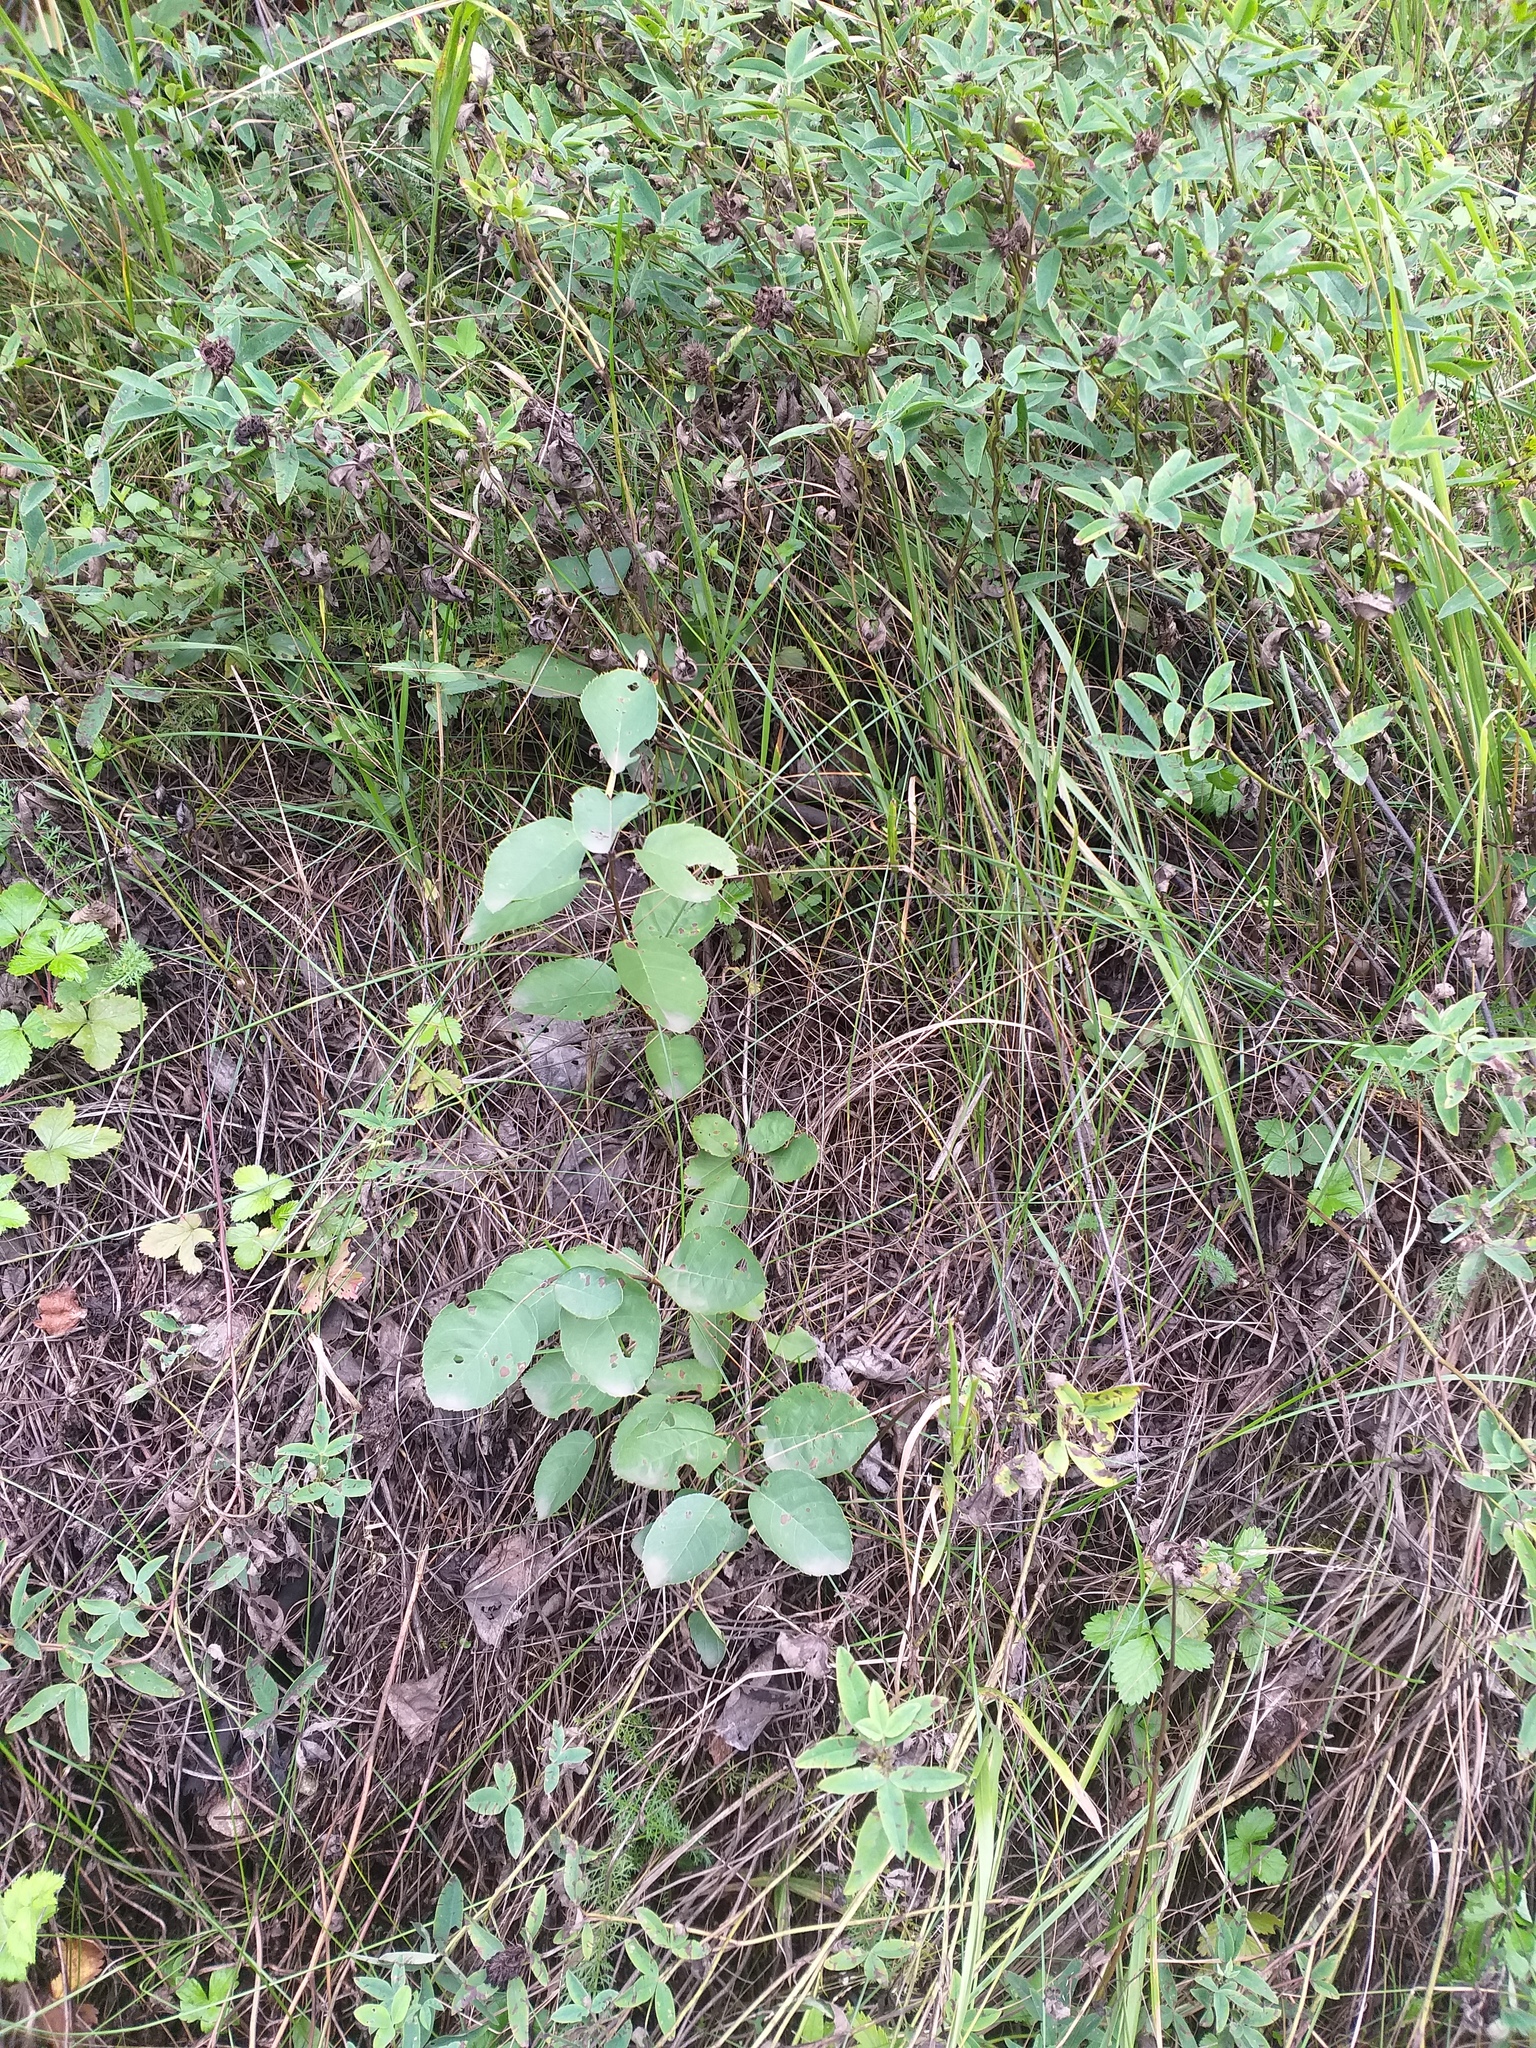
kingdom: Plantae
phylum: Tracheophyta
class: Magnoliopsida
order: Rosales
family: Rosaceae
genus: Amelanchier
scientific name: Amelanchier
